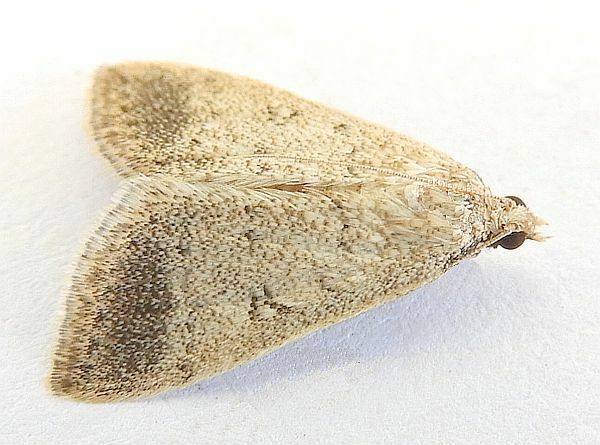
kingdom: Animalia
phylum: Arthropoda
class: Insecta
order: Lepidoptera
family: Crambidae
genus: Lamprosema
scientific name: Lamprosema
